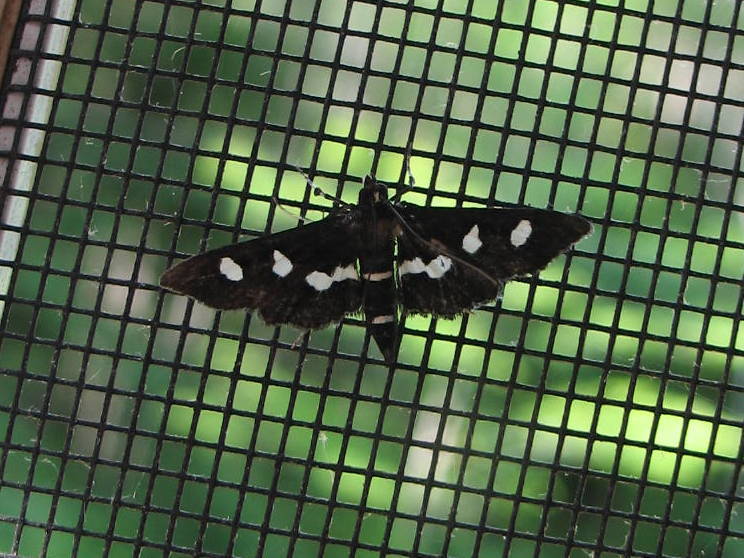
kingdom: Animalia
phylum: Arthropoda
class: Insecta
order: Lepidoptera
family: Crambidae
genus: Desmia
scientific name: Desmia
